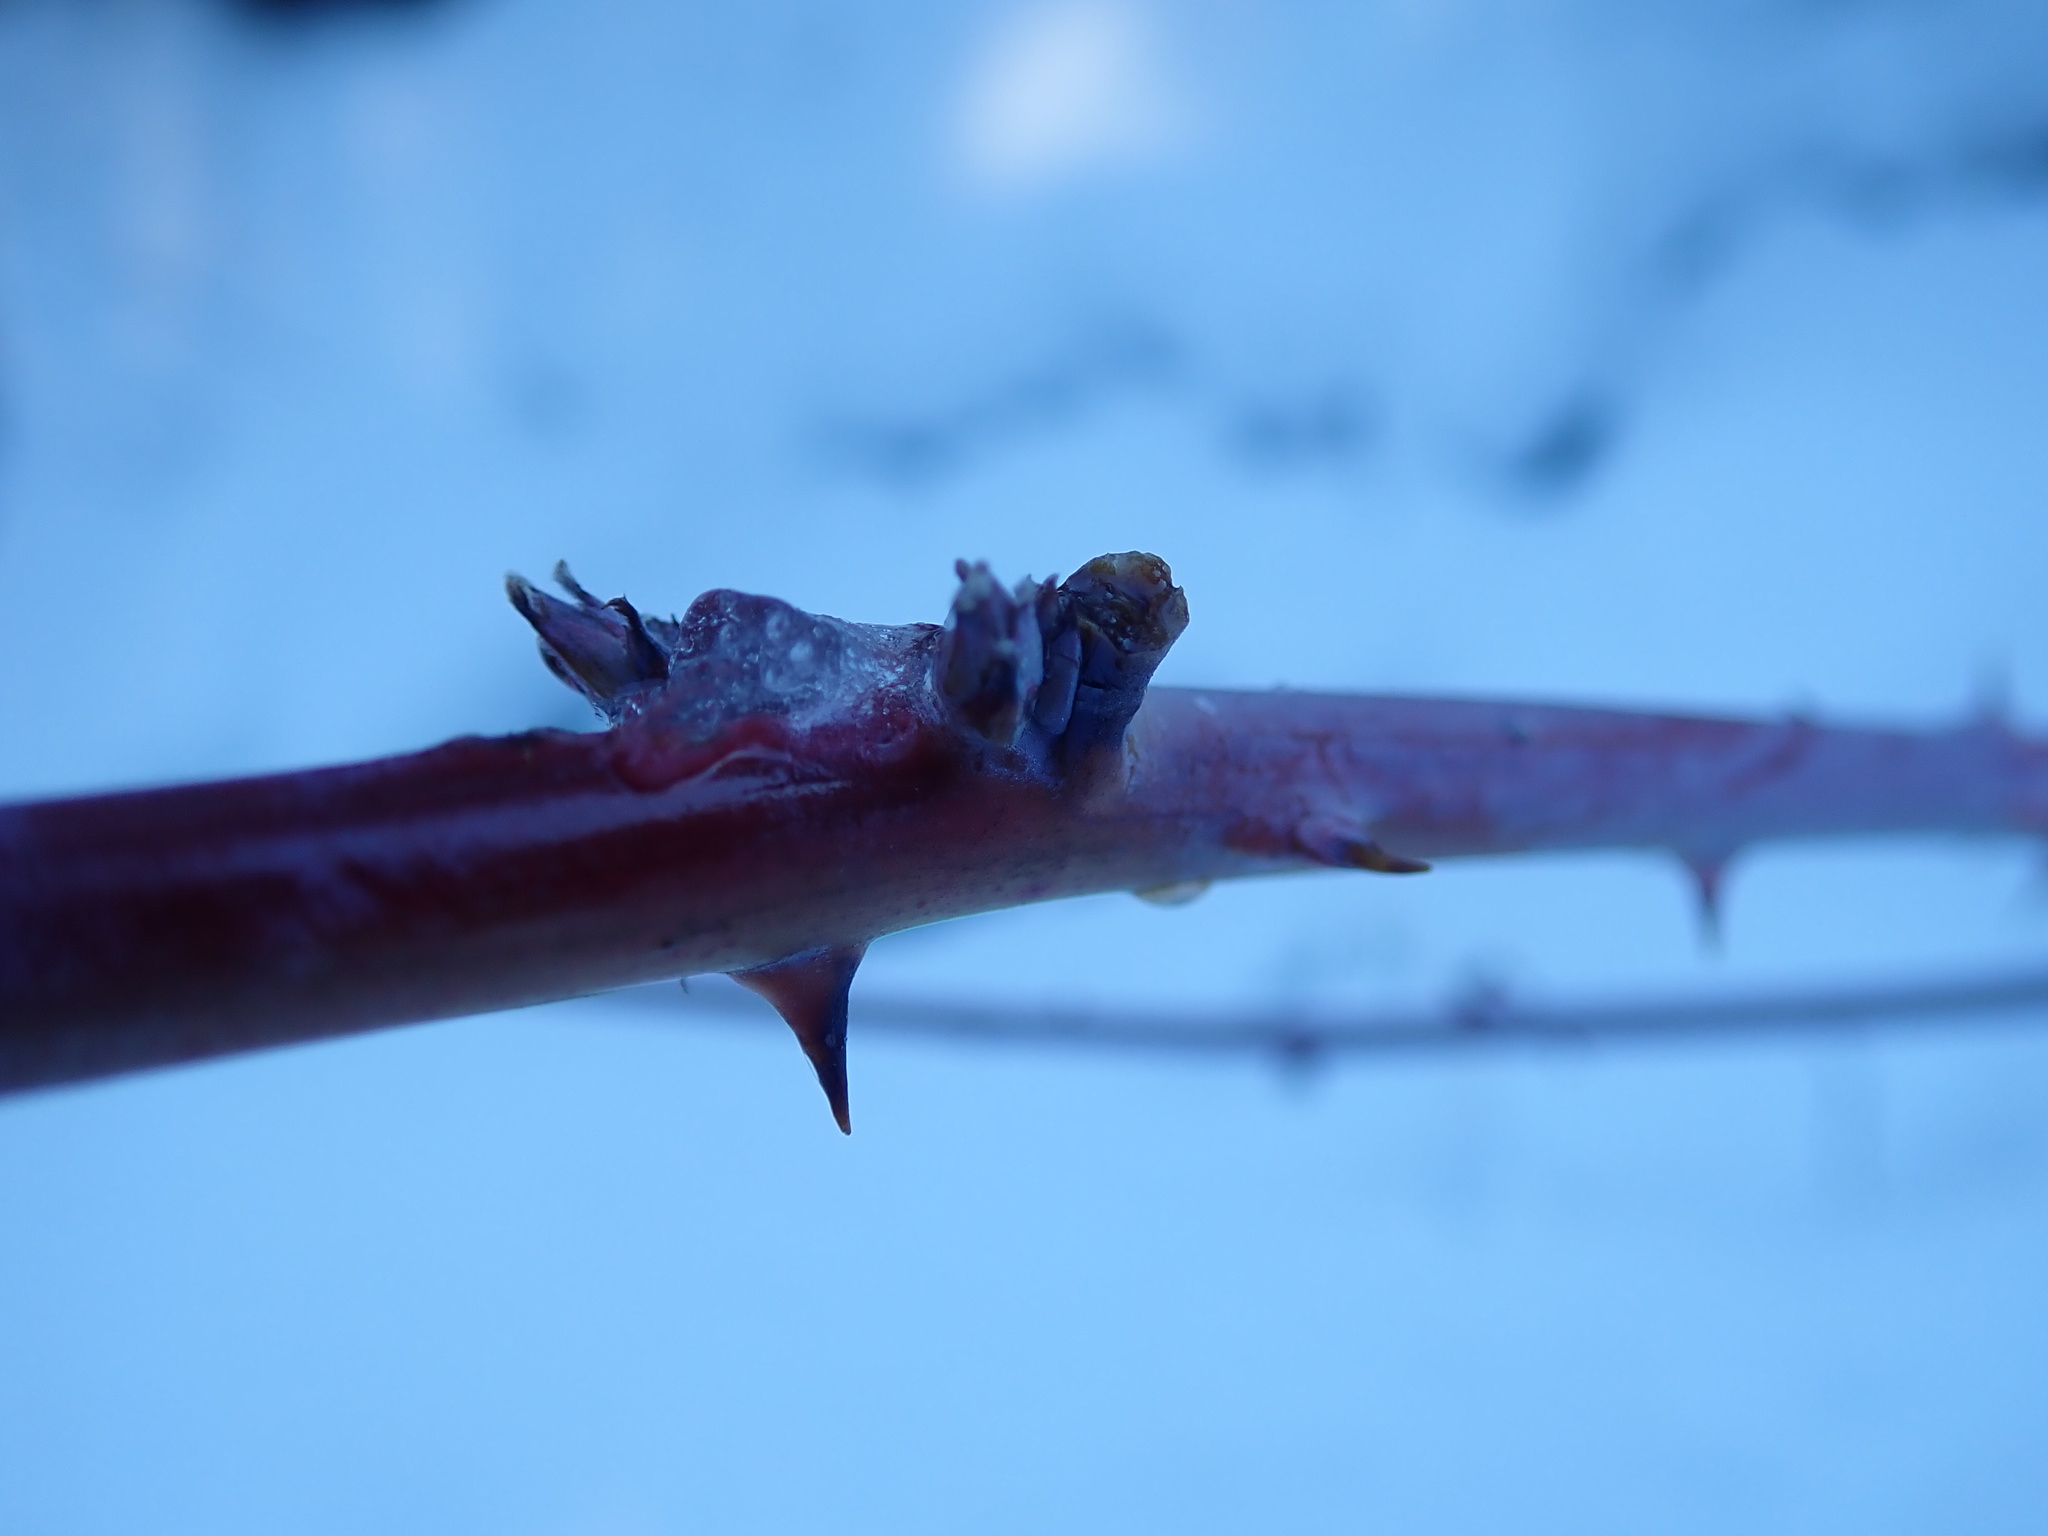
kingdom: Plantae
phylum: Tracheophyta
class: Magnoliopsida
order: Rosales
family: Rosaceae
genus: Rubus
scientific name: Rubus leucodermis
